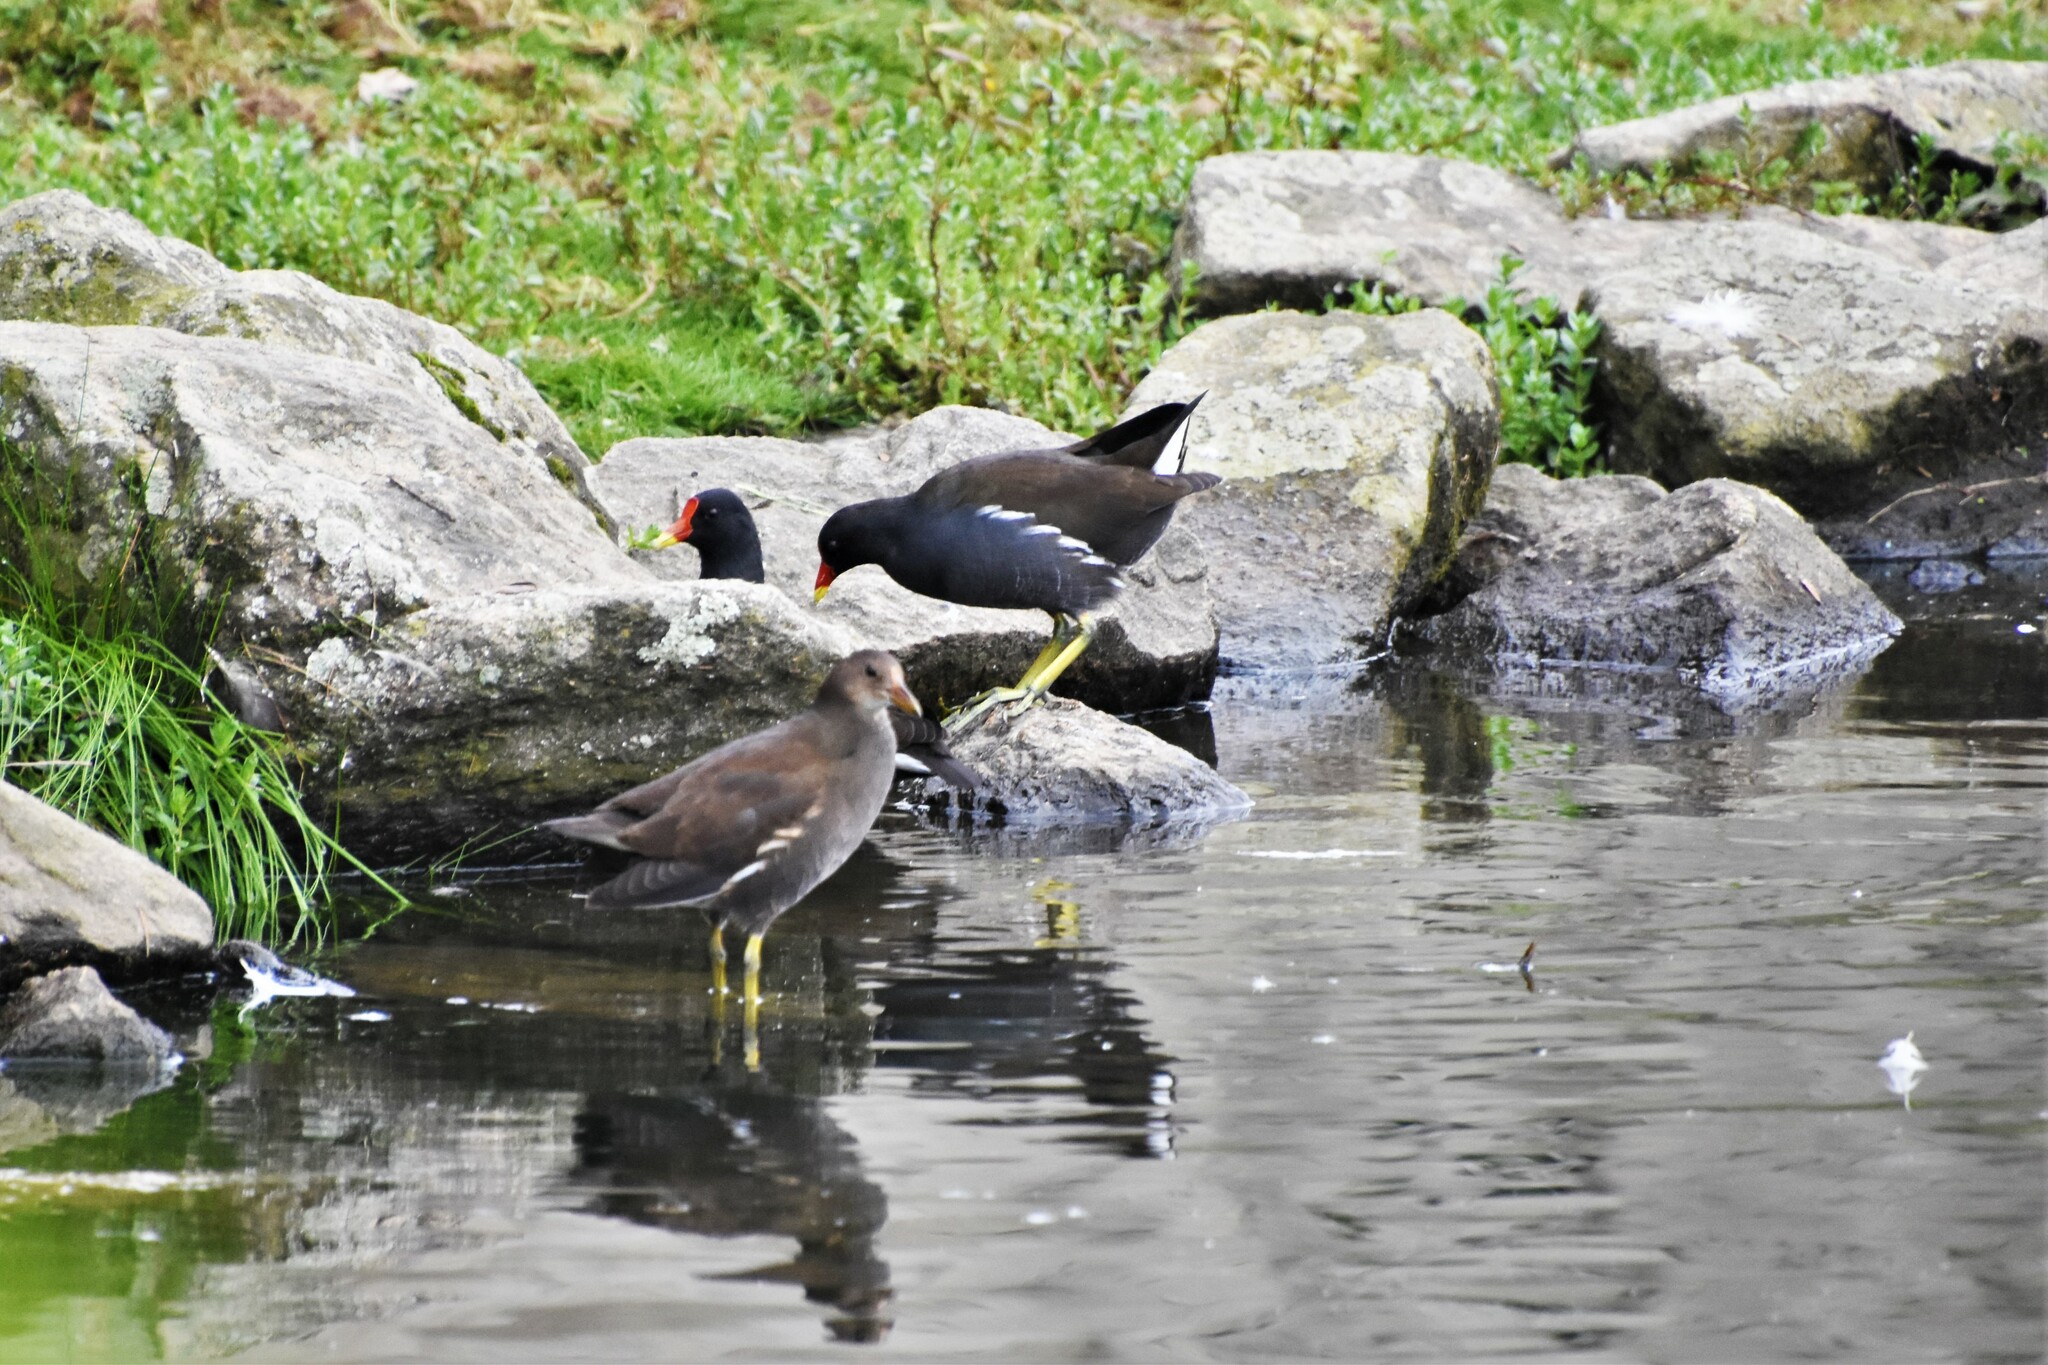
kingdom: Animalia
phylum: Chordata
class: Aves
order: Gruiformes
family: Rallidae
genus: Gallinula
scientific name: Gallinula chloropus
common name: Common moorhen
